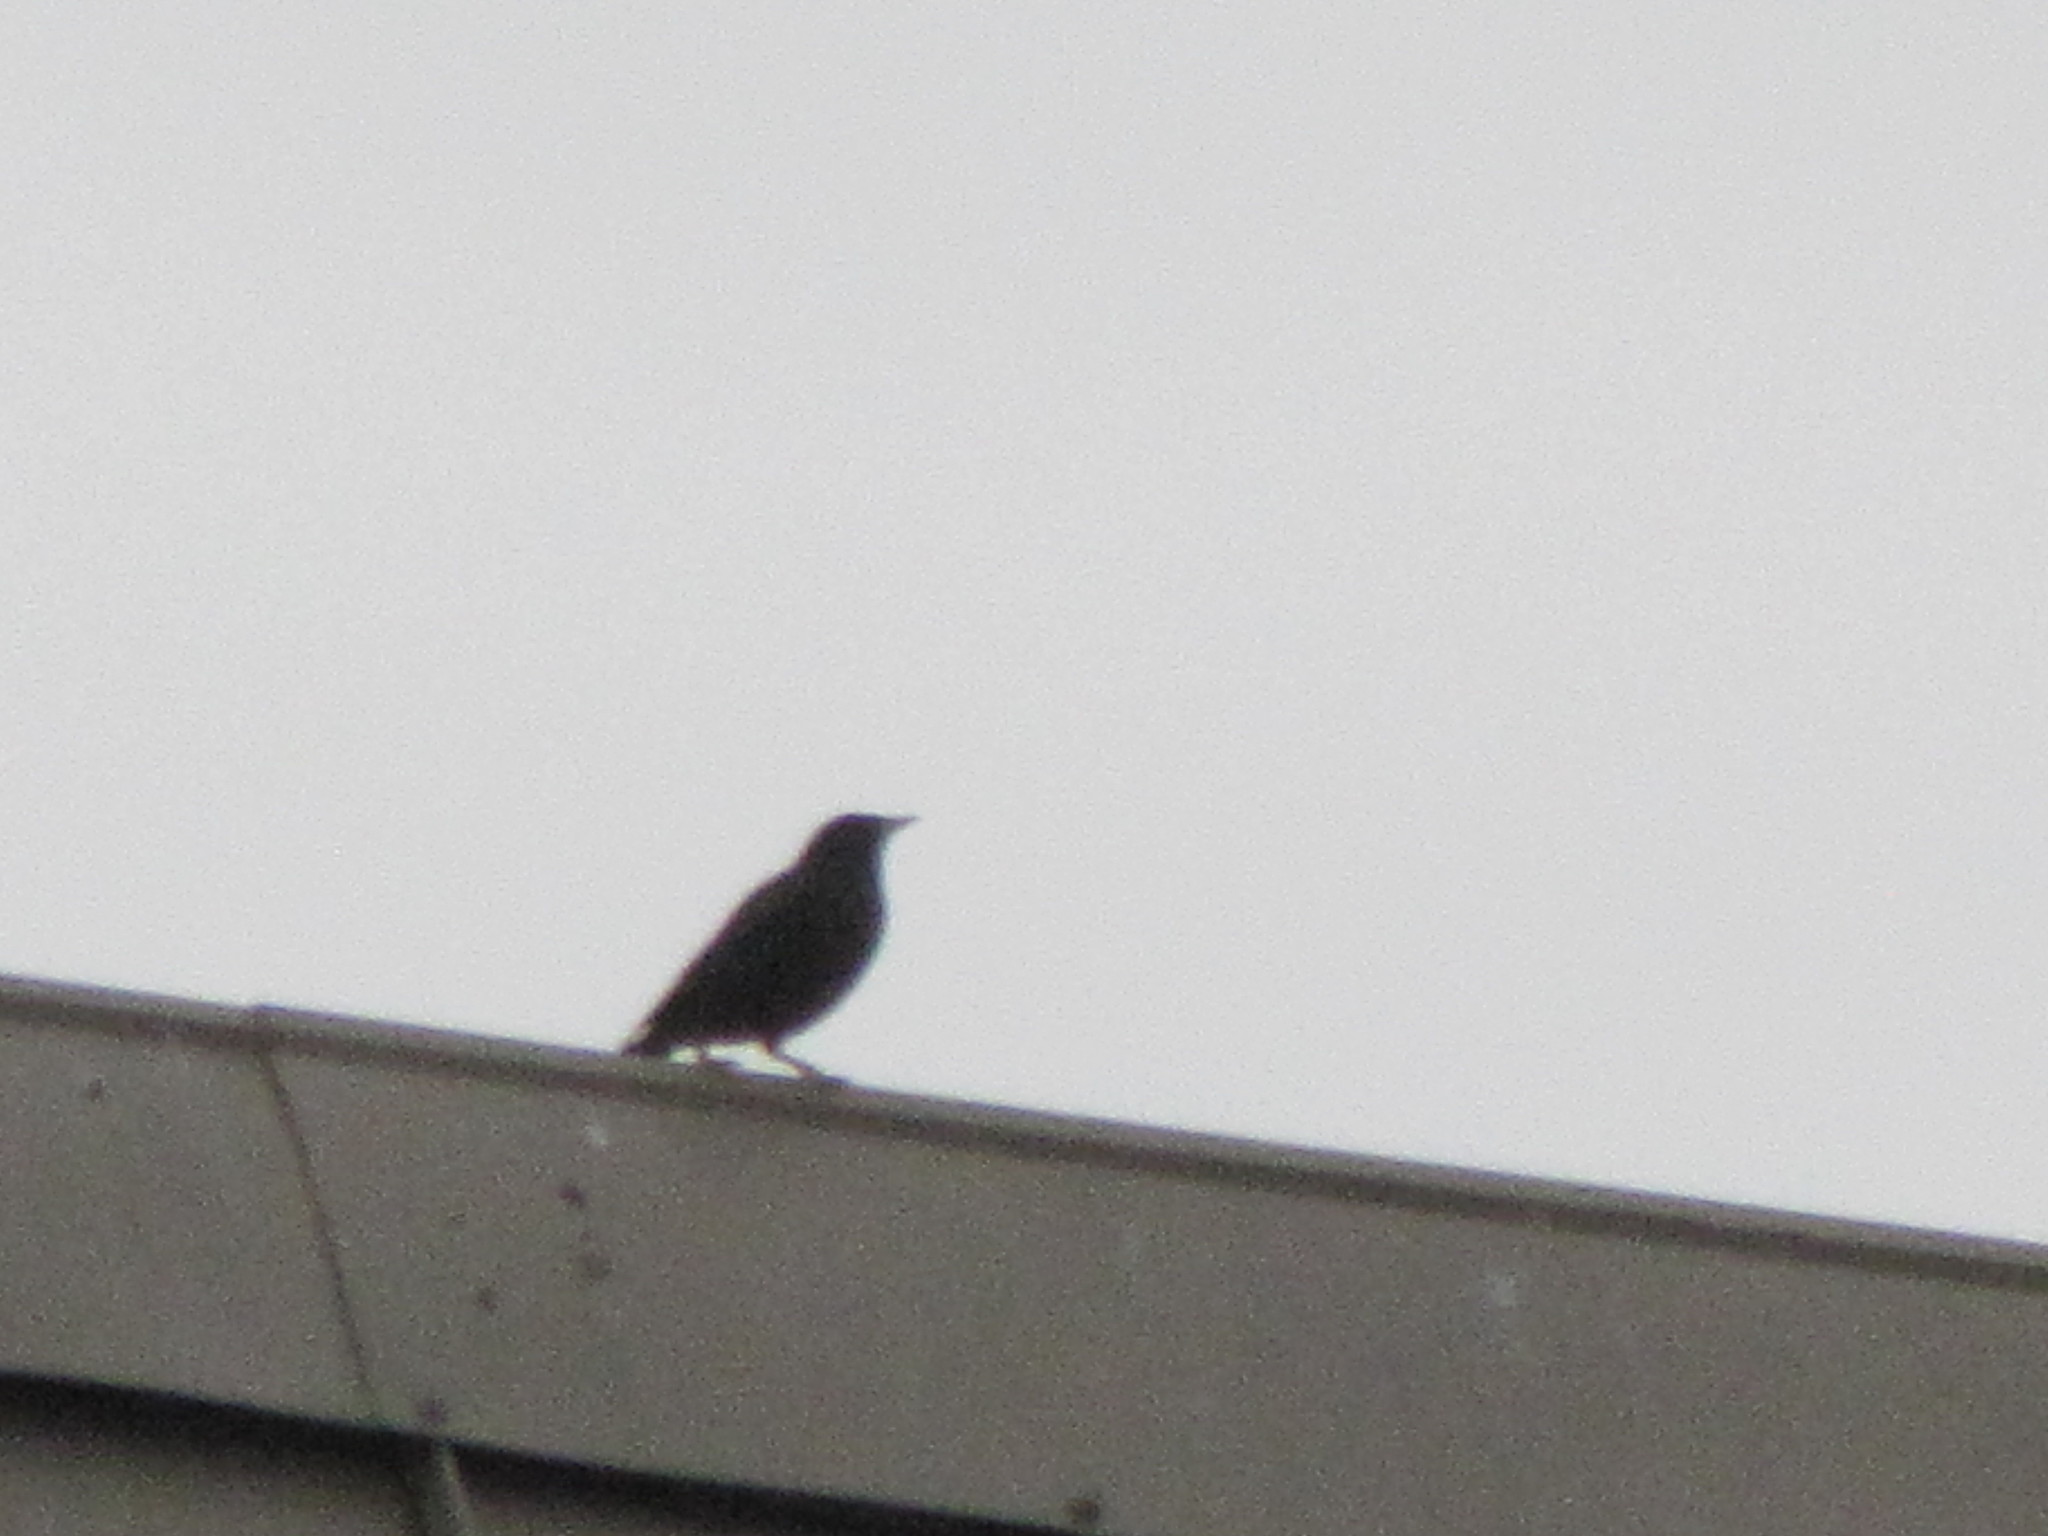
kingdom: Animalia
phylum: Chordata
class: Aves
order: Passeriformes
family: Sturnidae
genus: Sturnus
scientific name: Sturnus vulgaris
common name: Common starling
